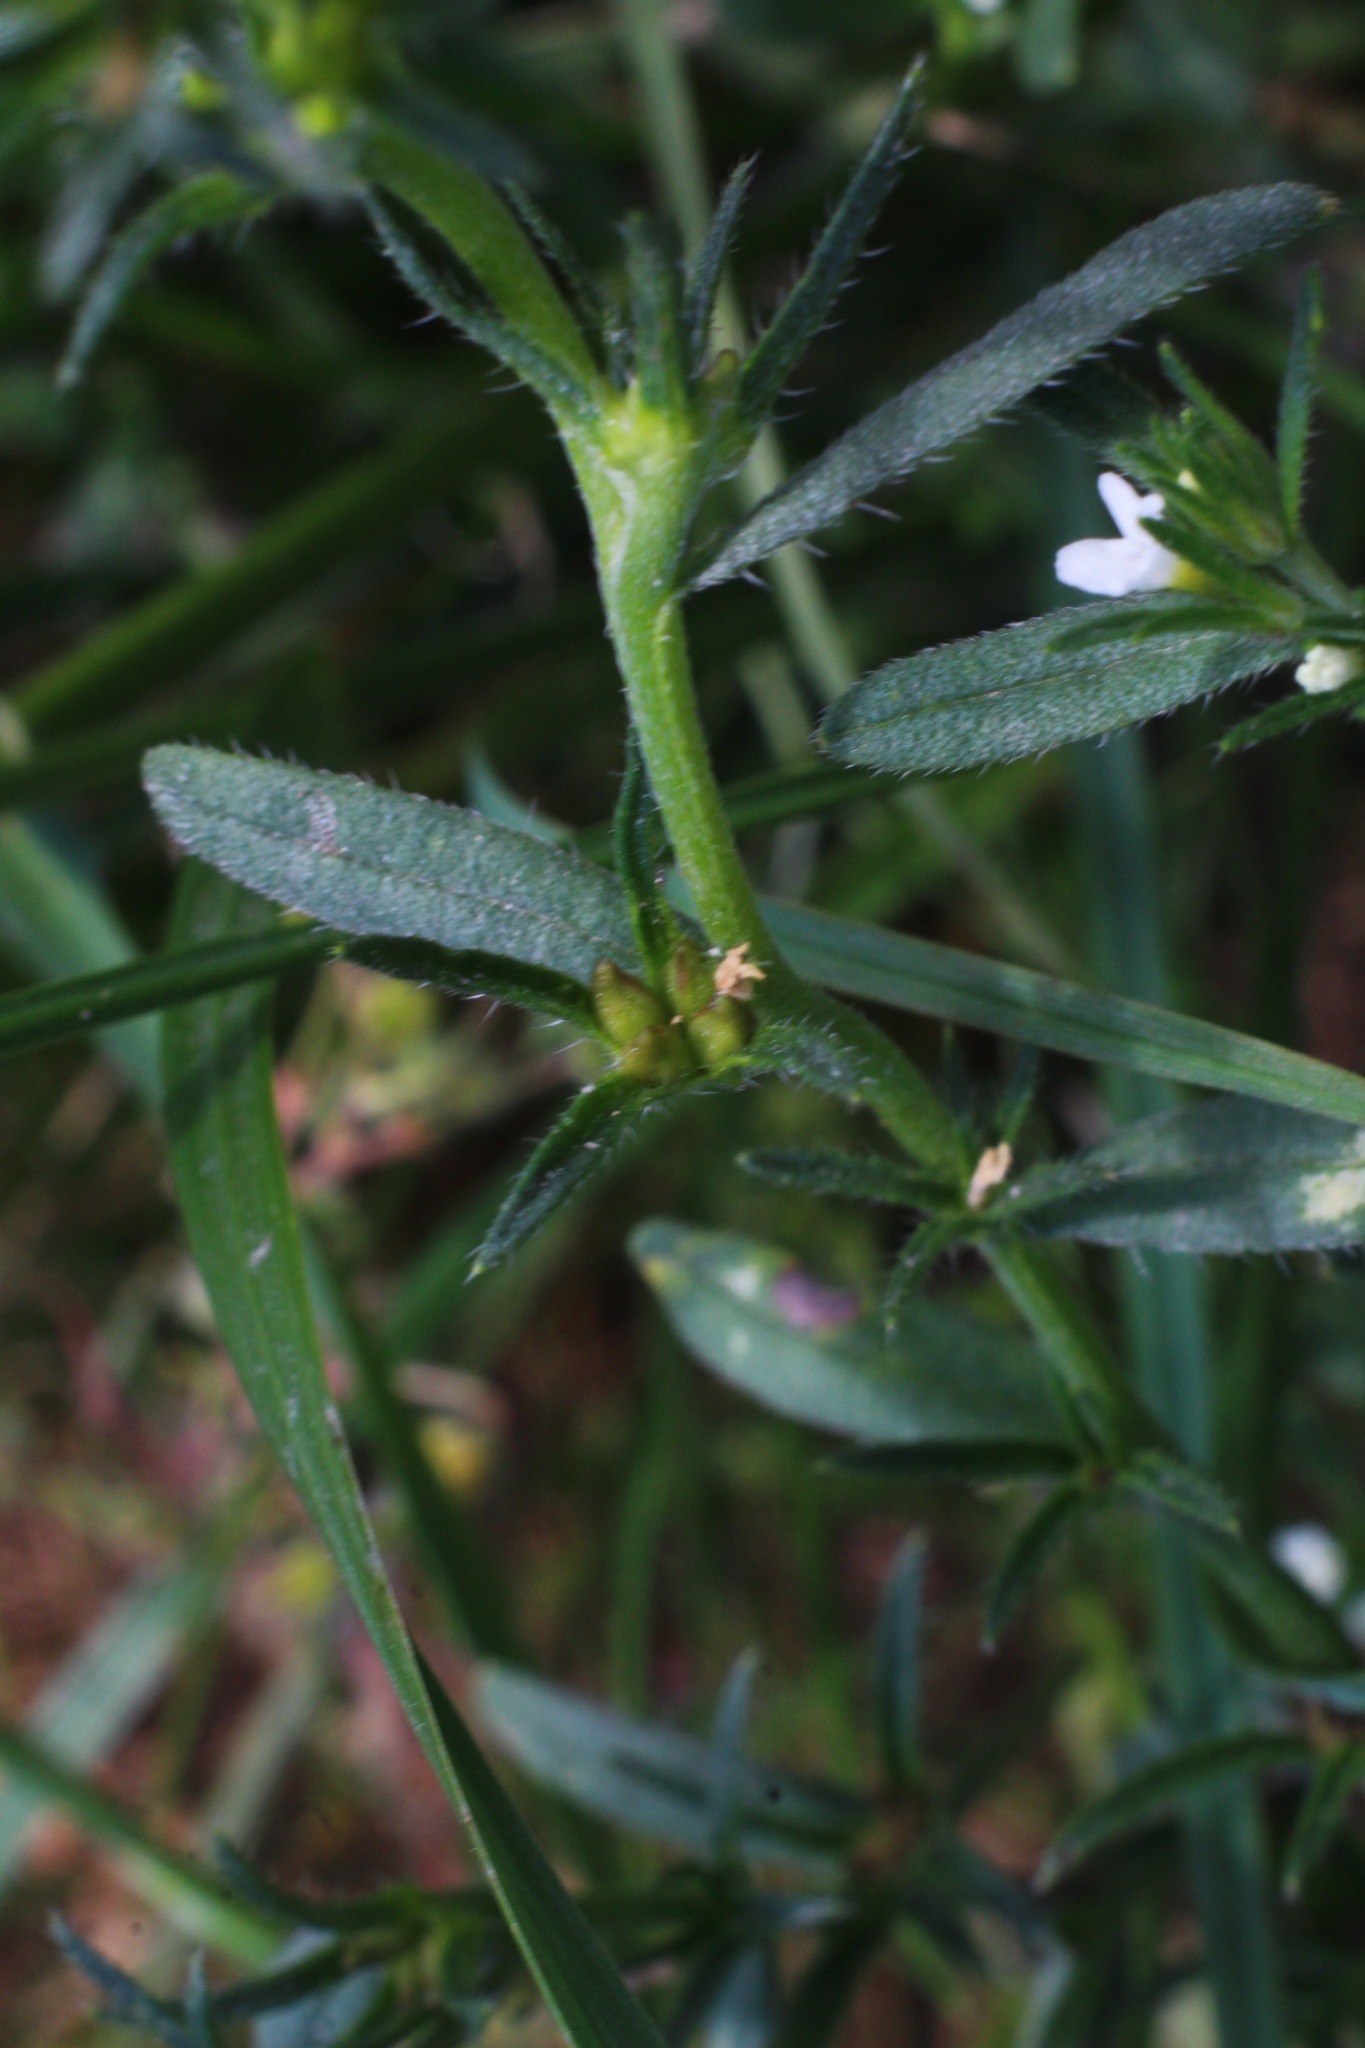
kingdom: Plantae
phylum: Tracheophyta
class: Magnoliopsida
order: Boraginales
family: Boraginaceae
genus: Buglossoides
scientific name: Buglossoides arvensis
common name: Corn gromwell
